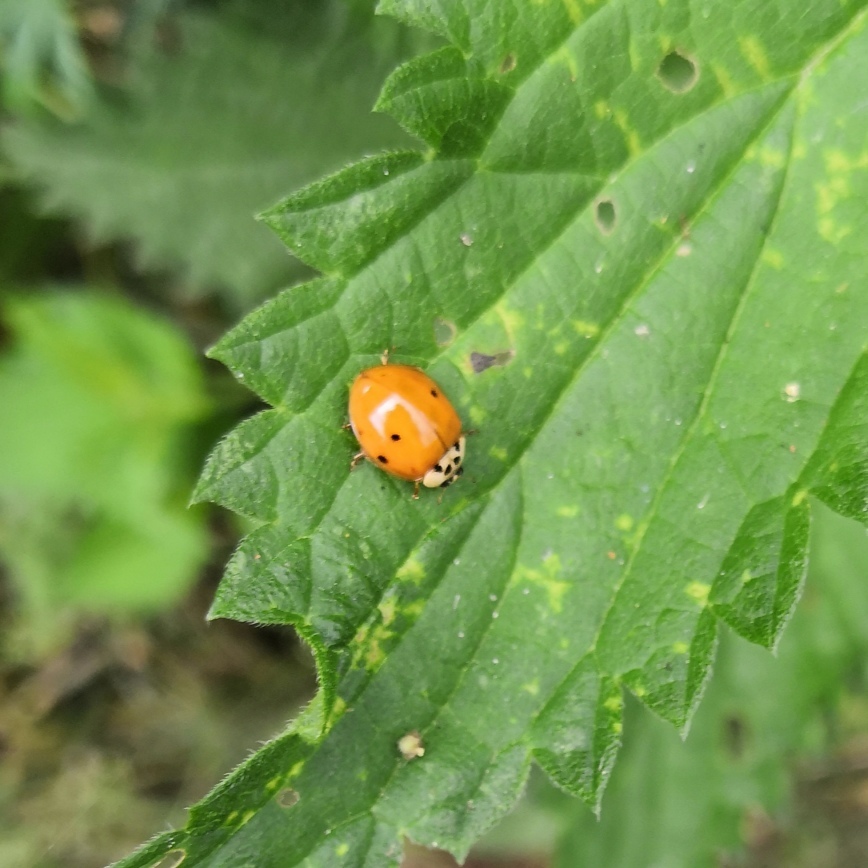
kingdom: Animalia
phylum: Arthropoda
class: Insecta
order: Coleoptera
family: Coccinellidae
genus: Harmonia
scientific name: Harmonia axyridis
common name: Harlequin ladybird
